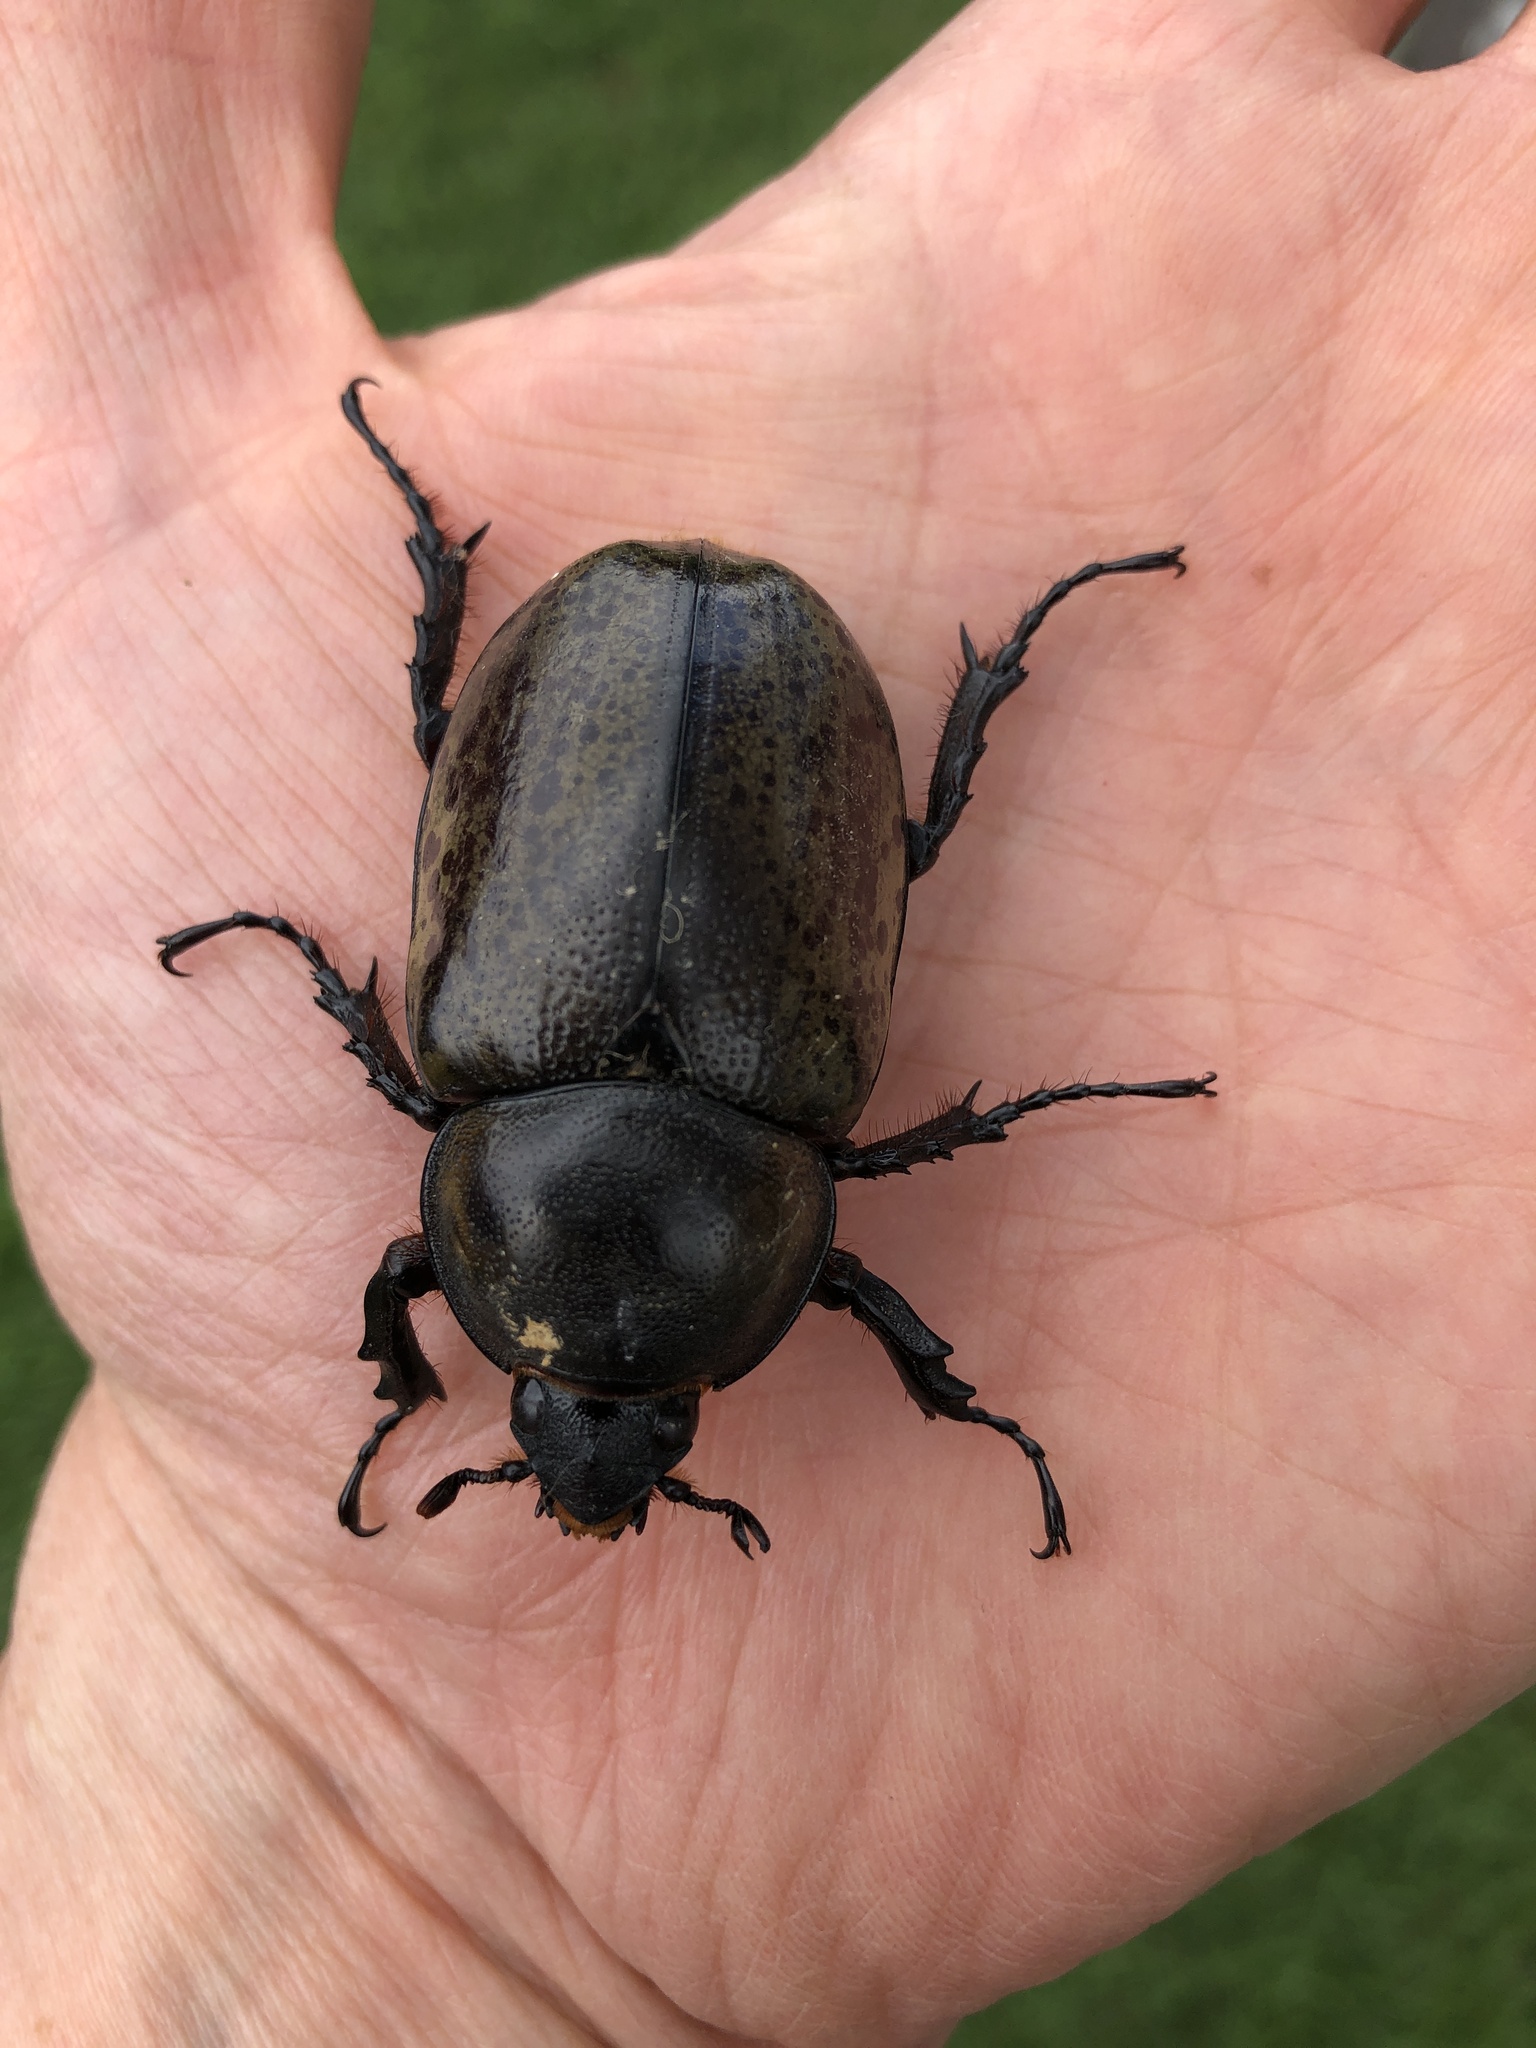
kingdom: Animalia
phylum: Arthropoda
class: Insecta
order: Coleoptera
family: Scarabaeidae
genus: Dynastes
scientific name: Dynastes tityus
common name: Eastern hercules beetle
